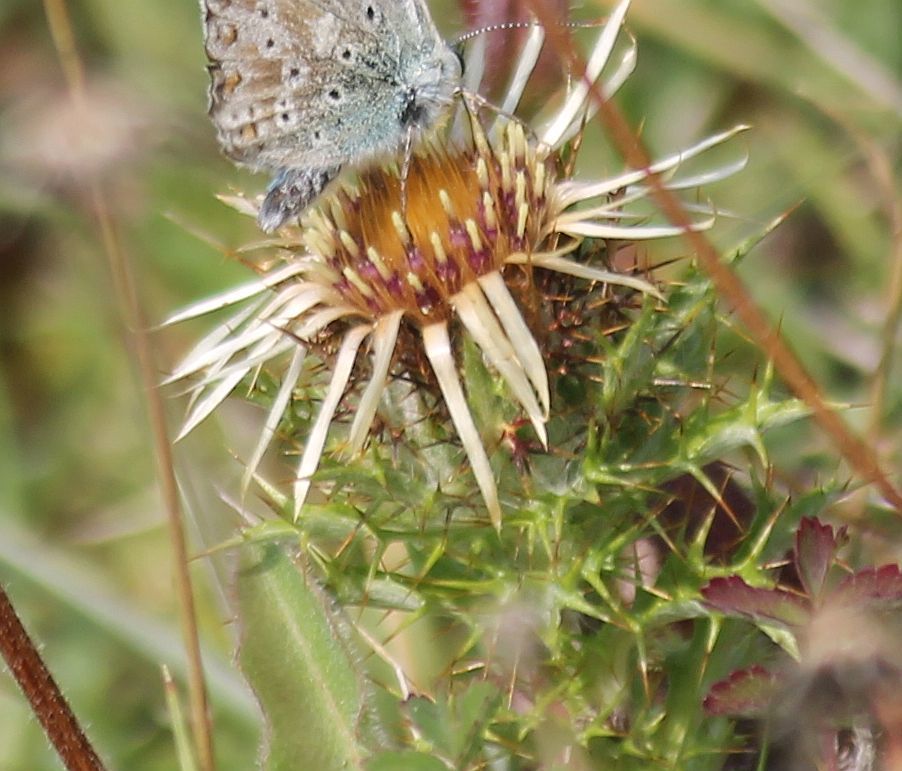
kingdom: Plantae
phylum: Tracheophyta
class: Magnoliopsida
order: Asterales
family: Asteraceae
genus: Carlina
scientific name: Carlina vulgaris
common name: Carline thistle
